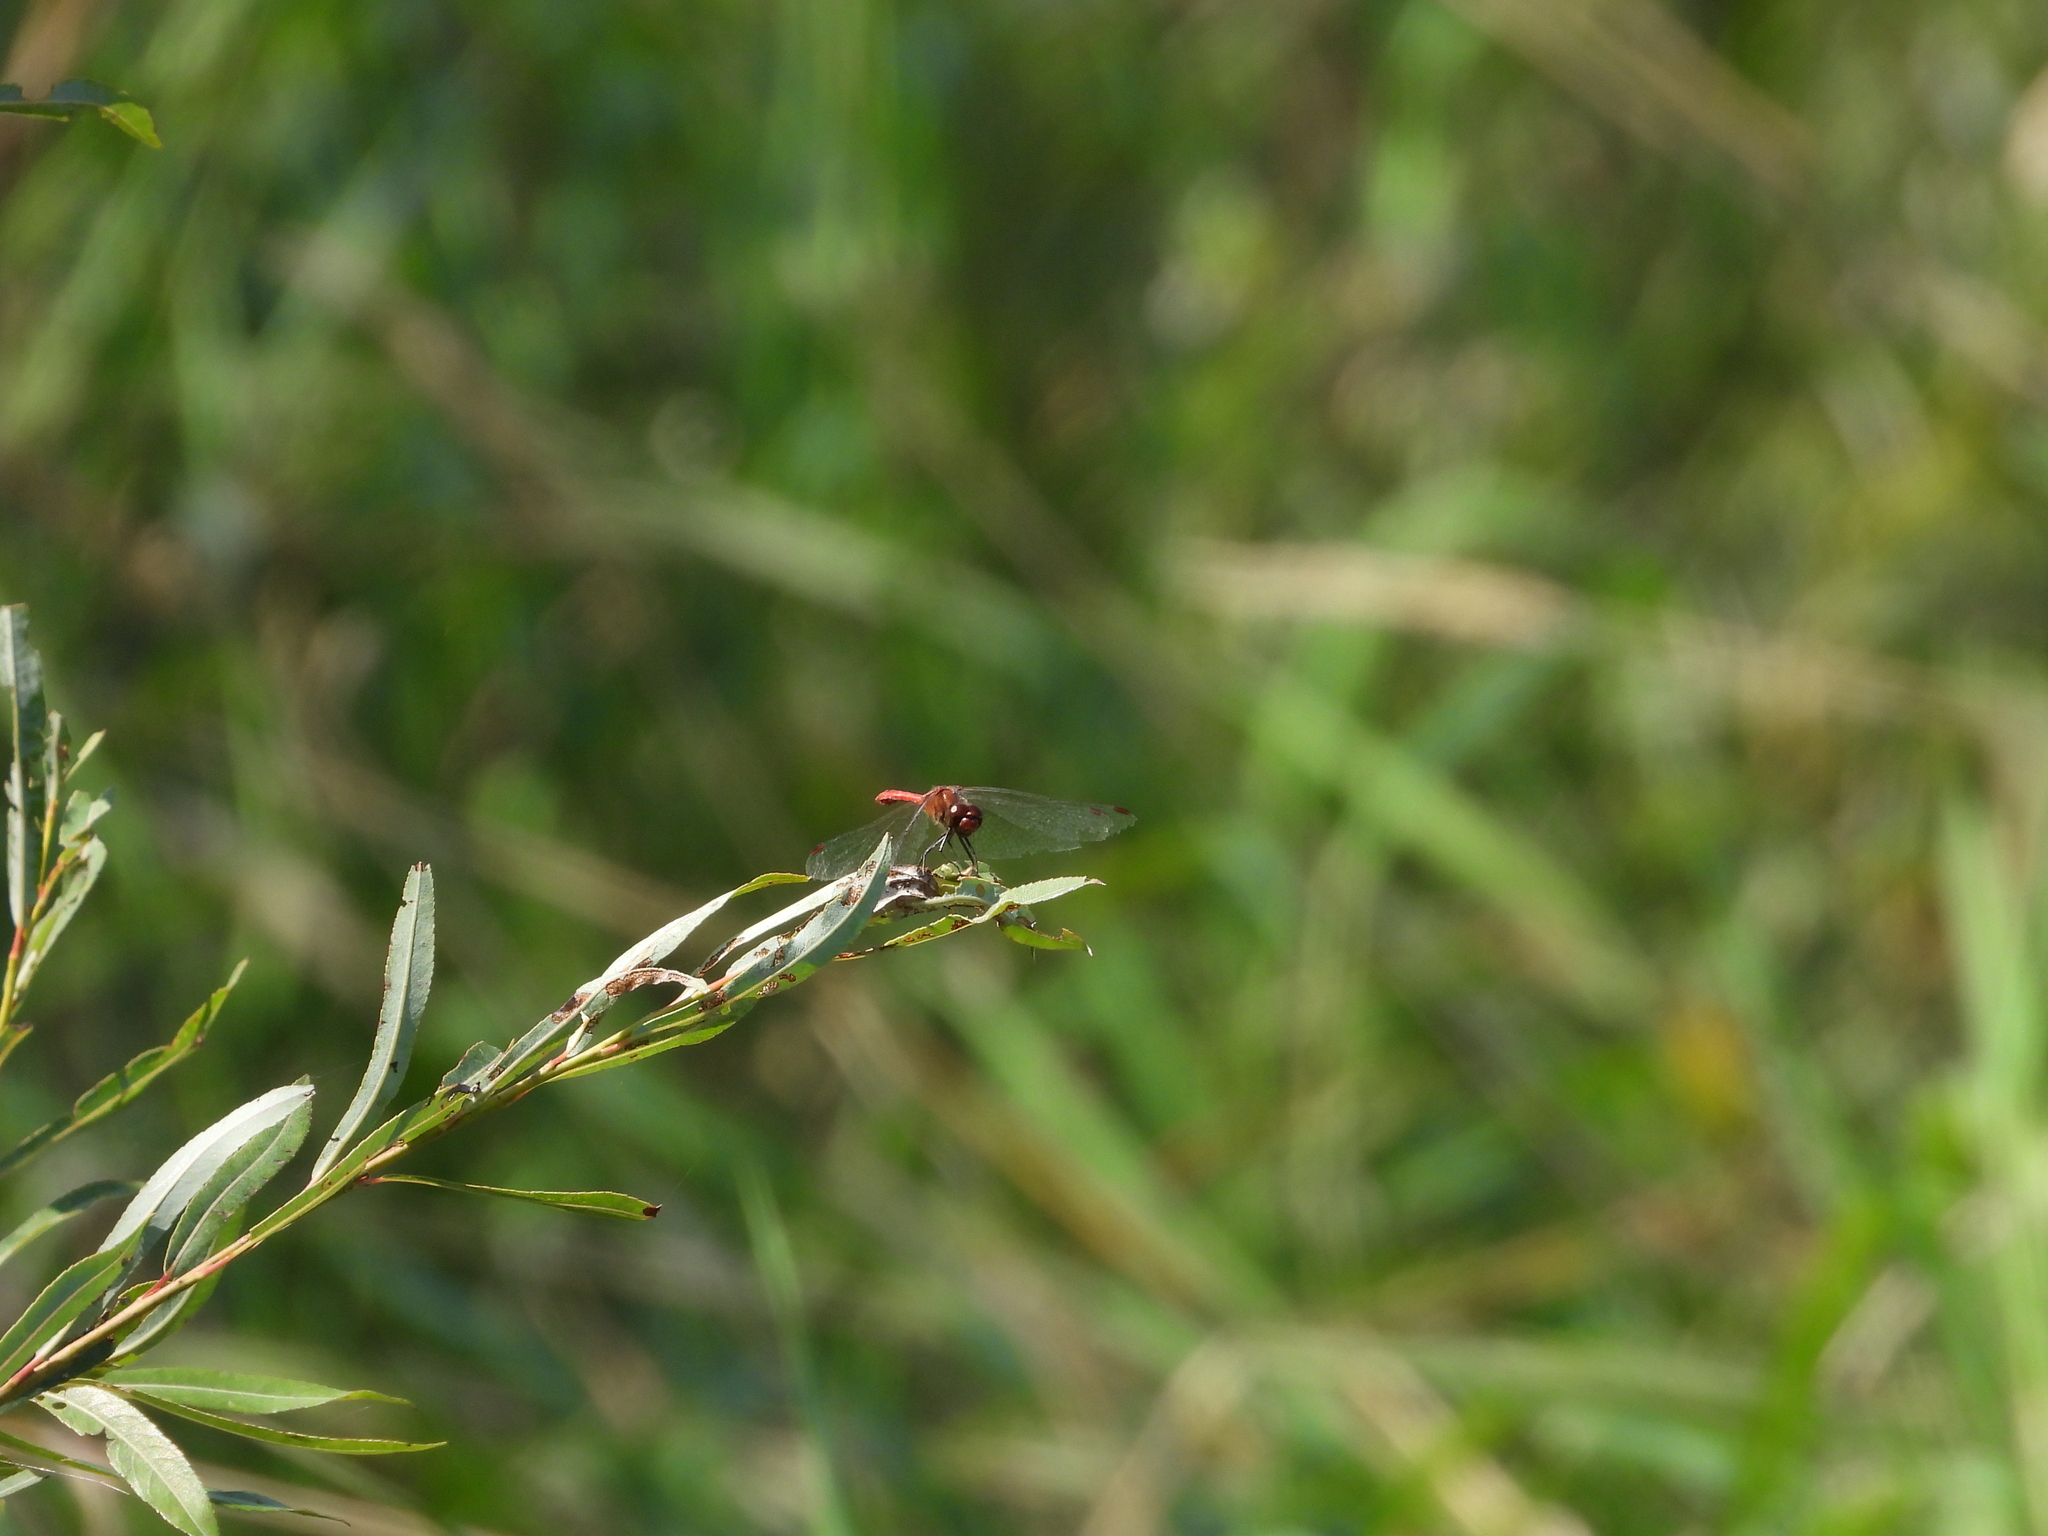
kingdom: Animalia
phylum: Arthropoda
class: Insecta
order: Odonata
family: Libellulidae
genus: Sympetrum
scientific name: Sympetrum sanguineum
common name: Ruddy darter
